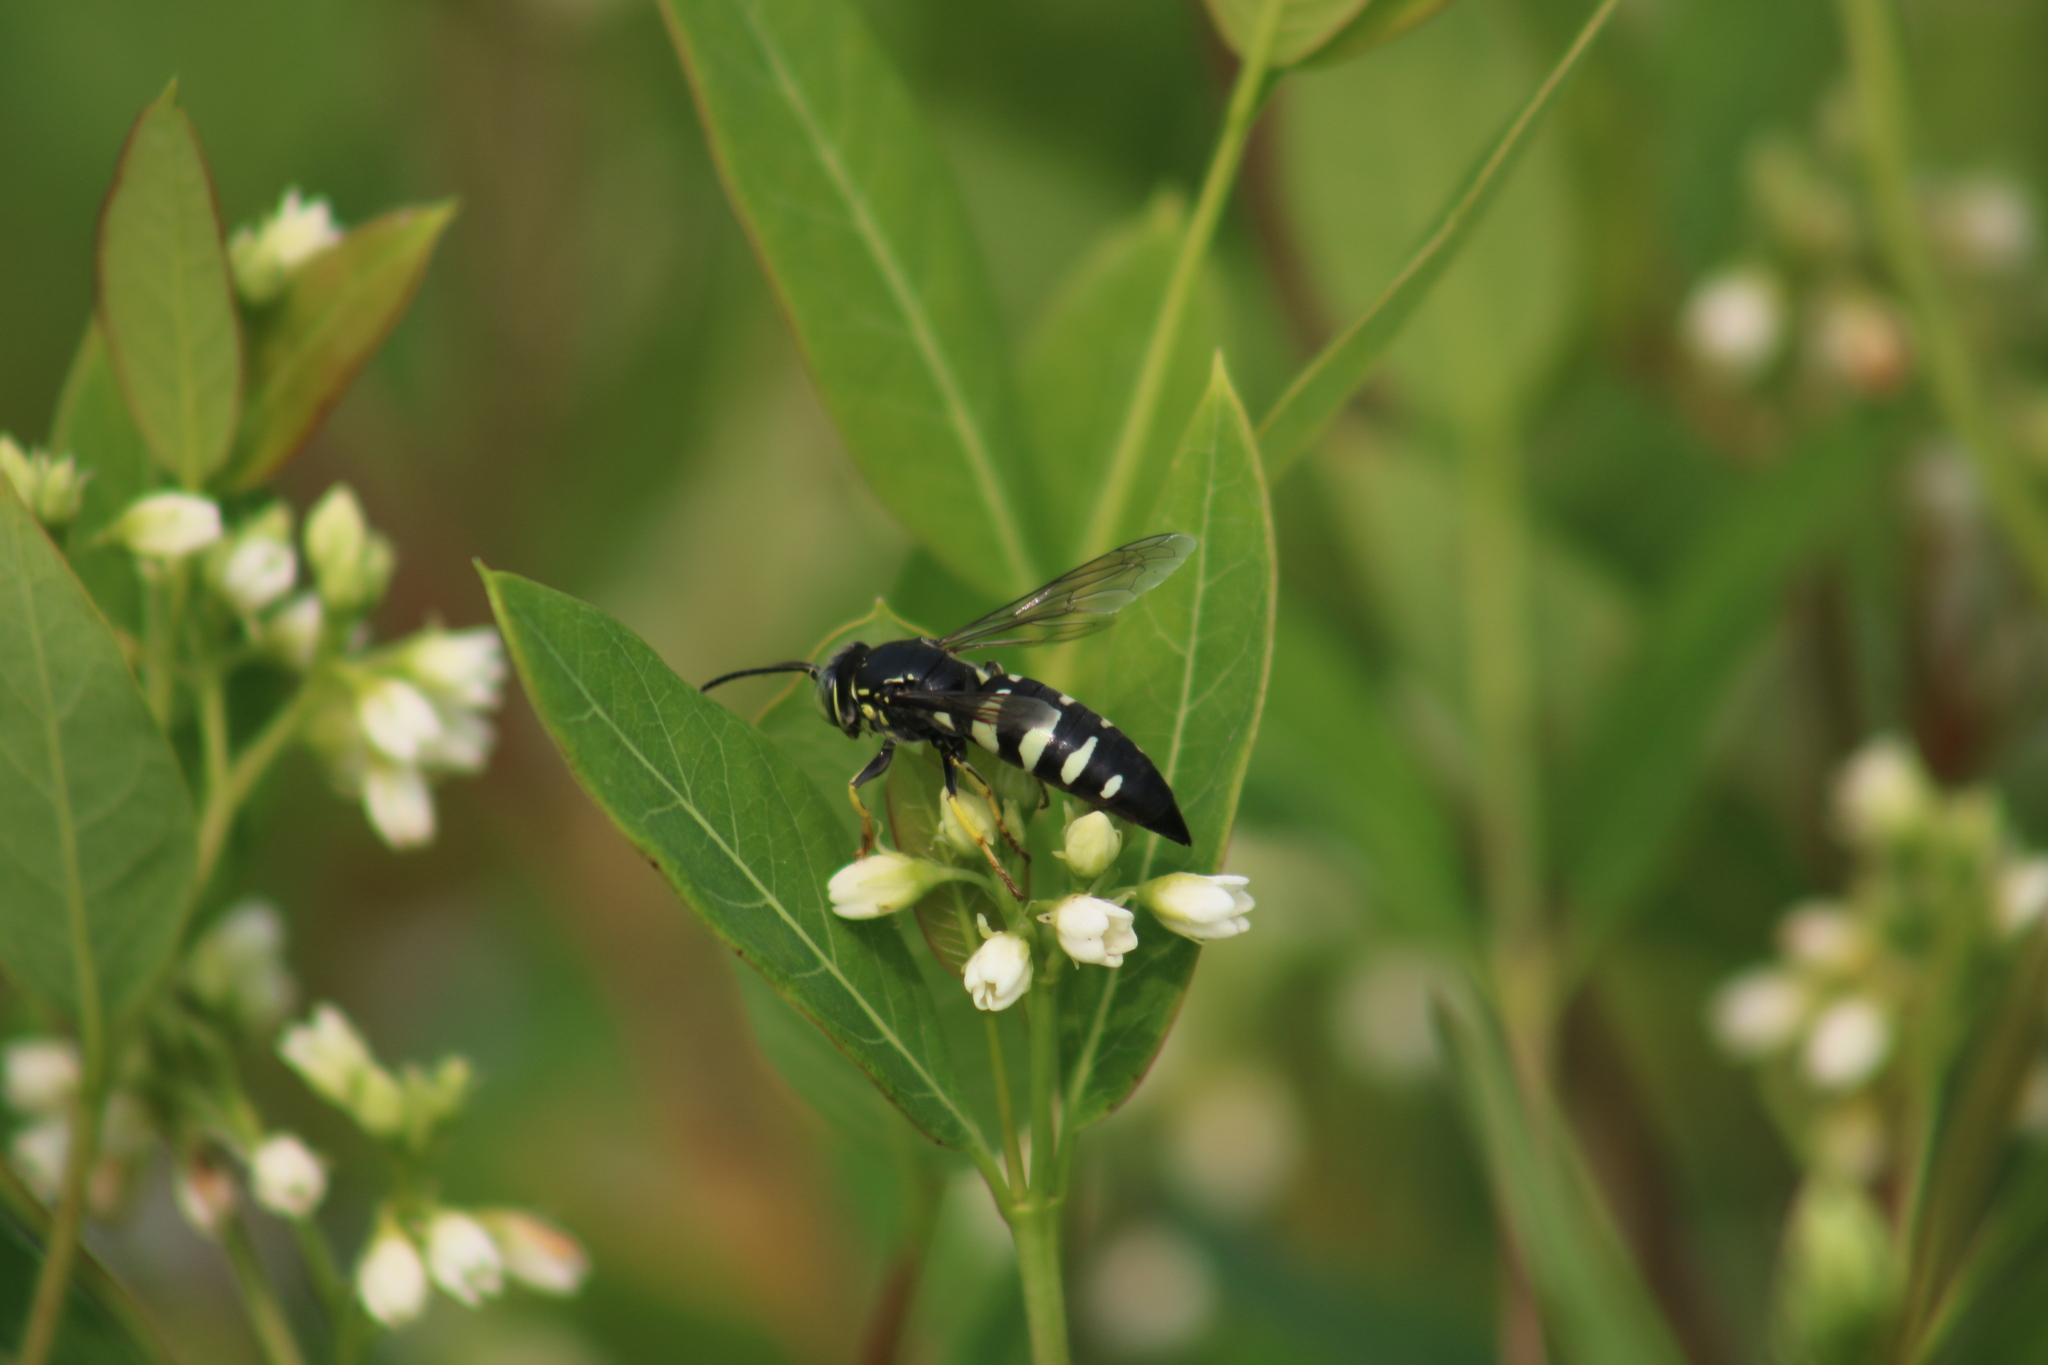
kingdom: Animalia
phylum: Arthropoda
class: Insecta
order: Hymenoptera
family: Crabronidae
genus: Bicyrtes
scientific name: Bicyrtes quadrifasciatus
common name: Four-banded stink bug hunter wasp
